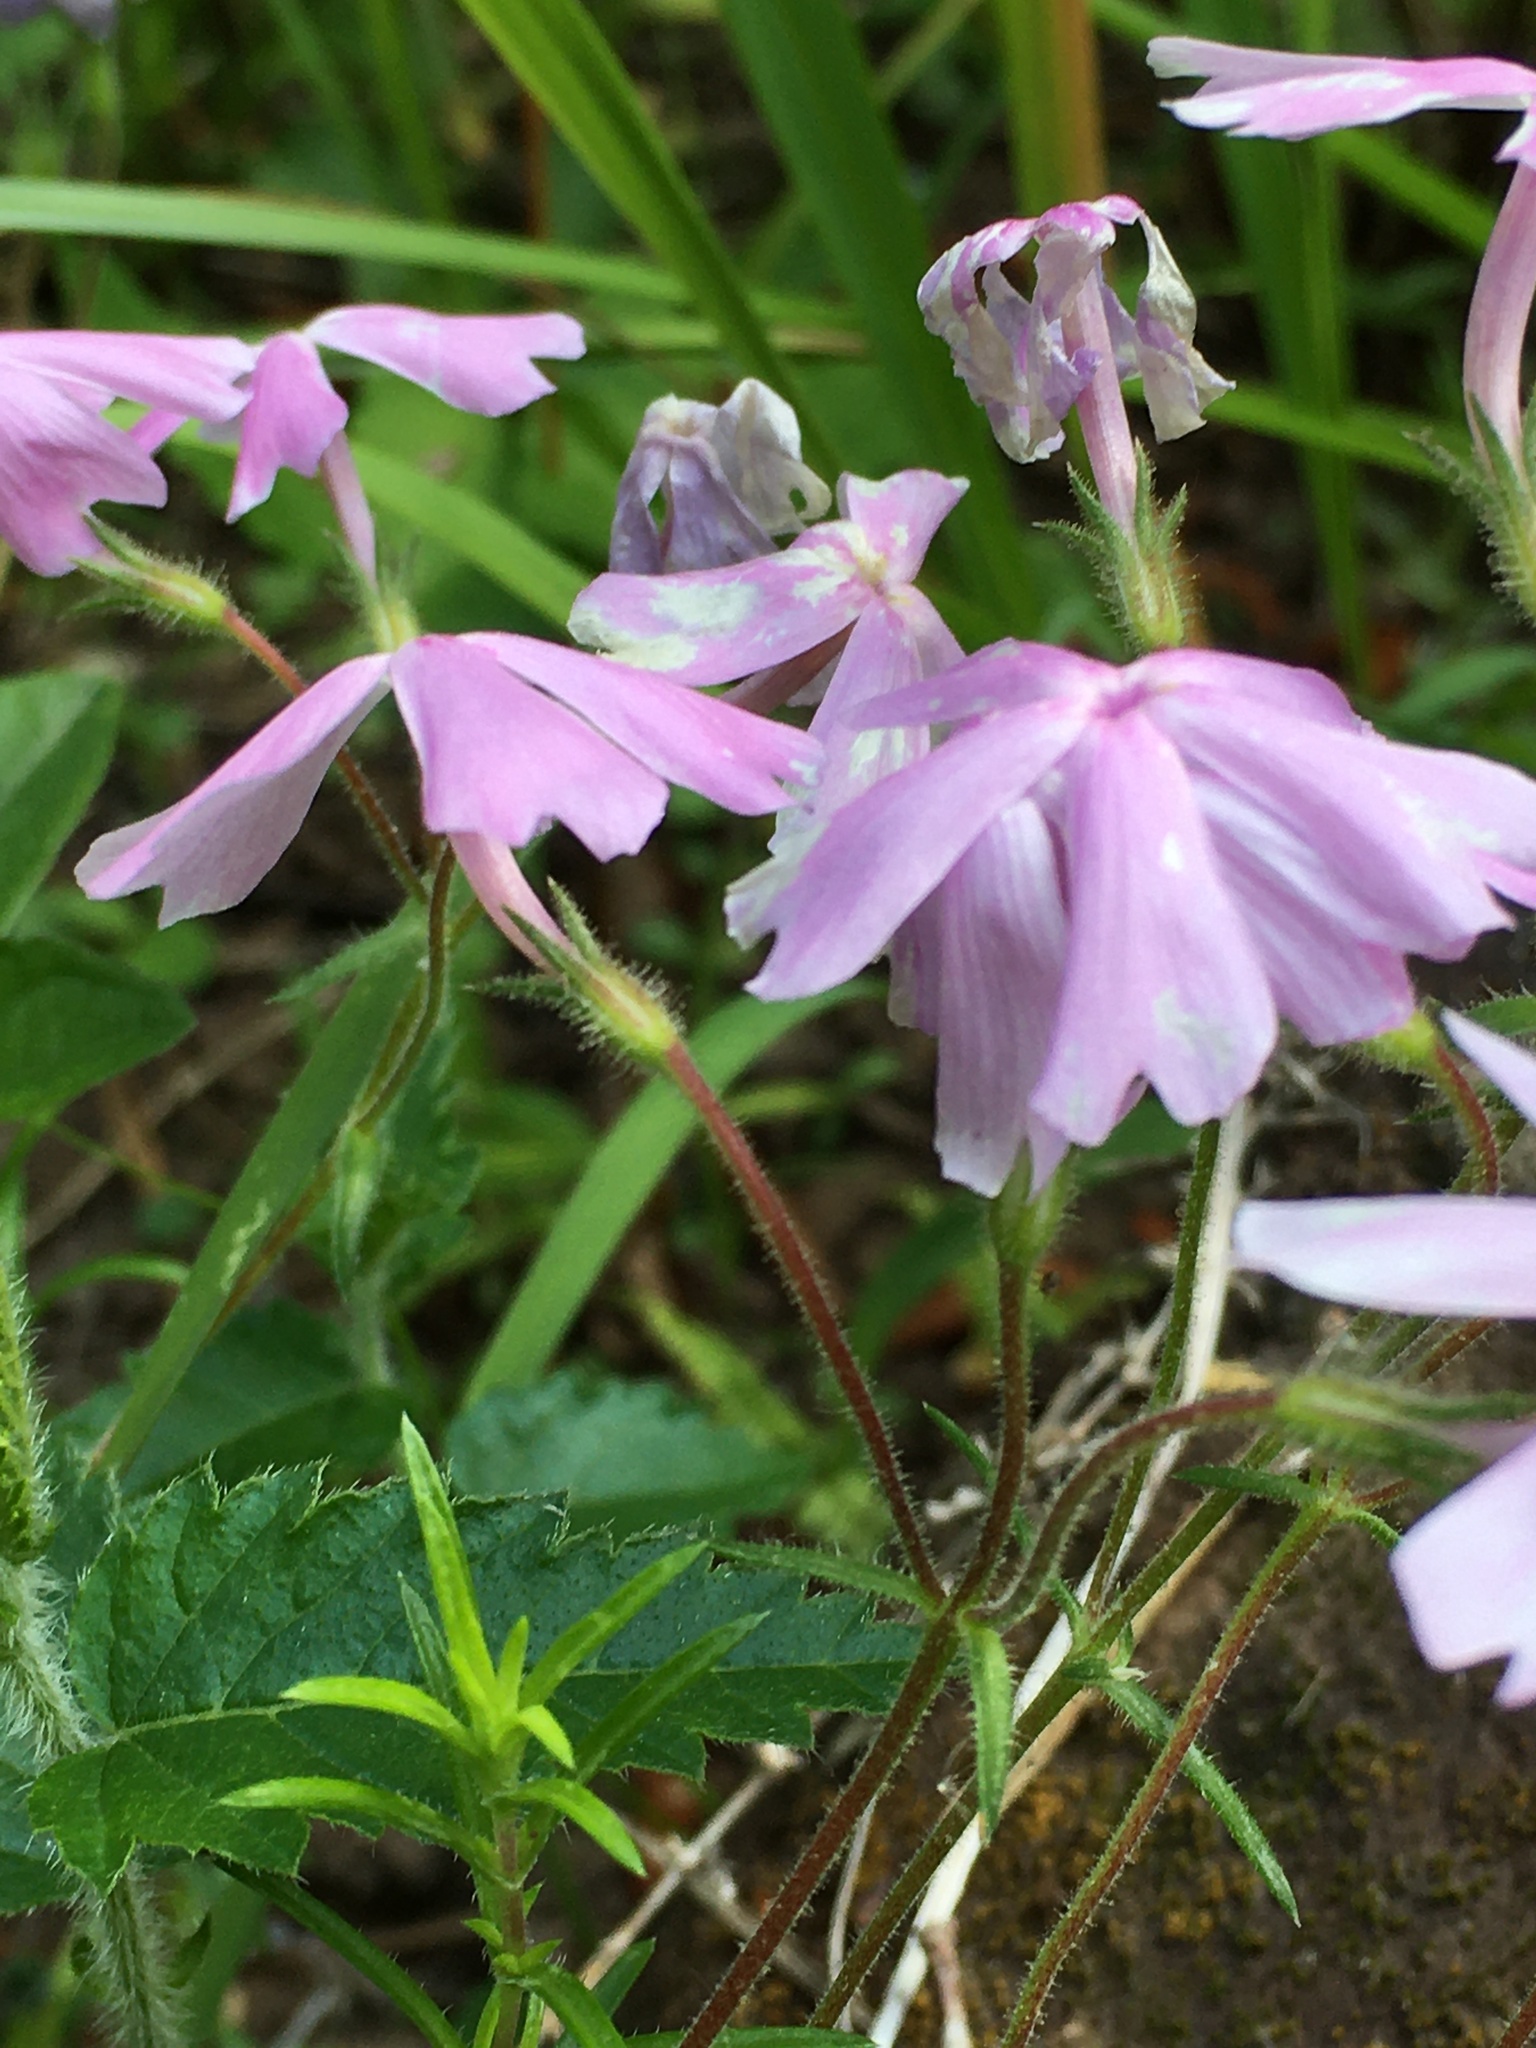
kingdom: Plantae
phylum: Tracheophyta
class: Magnoliopsida
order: Ericales
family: Polemoniaceae
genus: Phlox
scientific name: Phlox nivalis
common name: Trailing phlox
